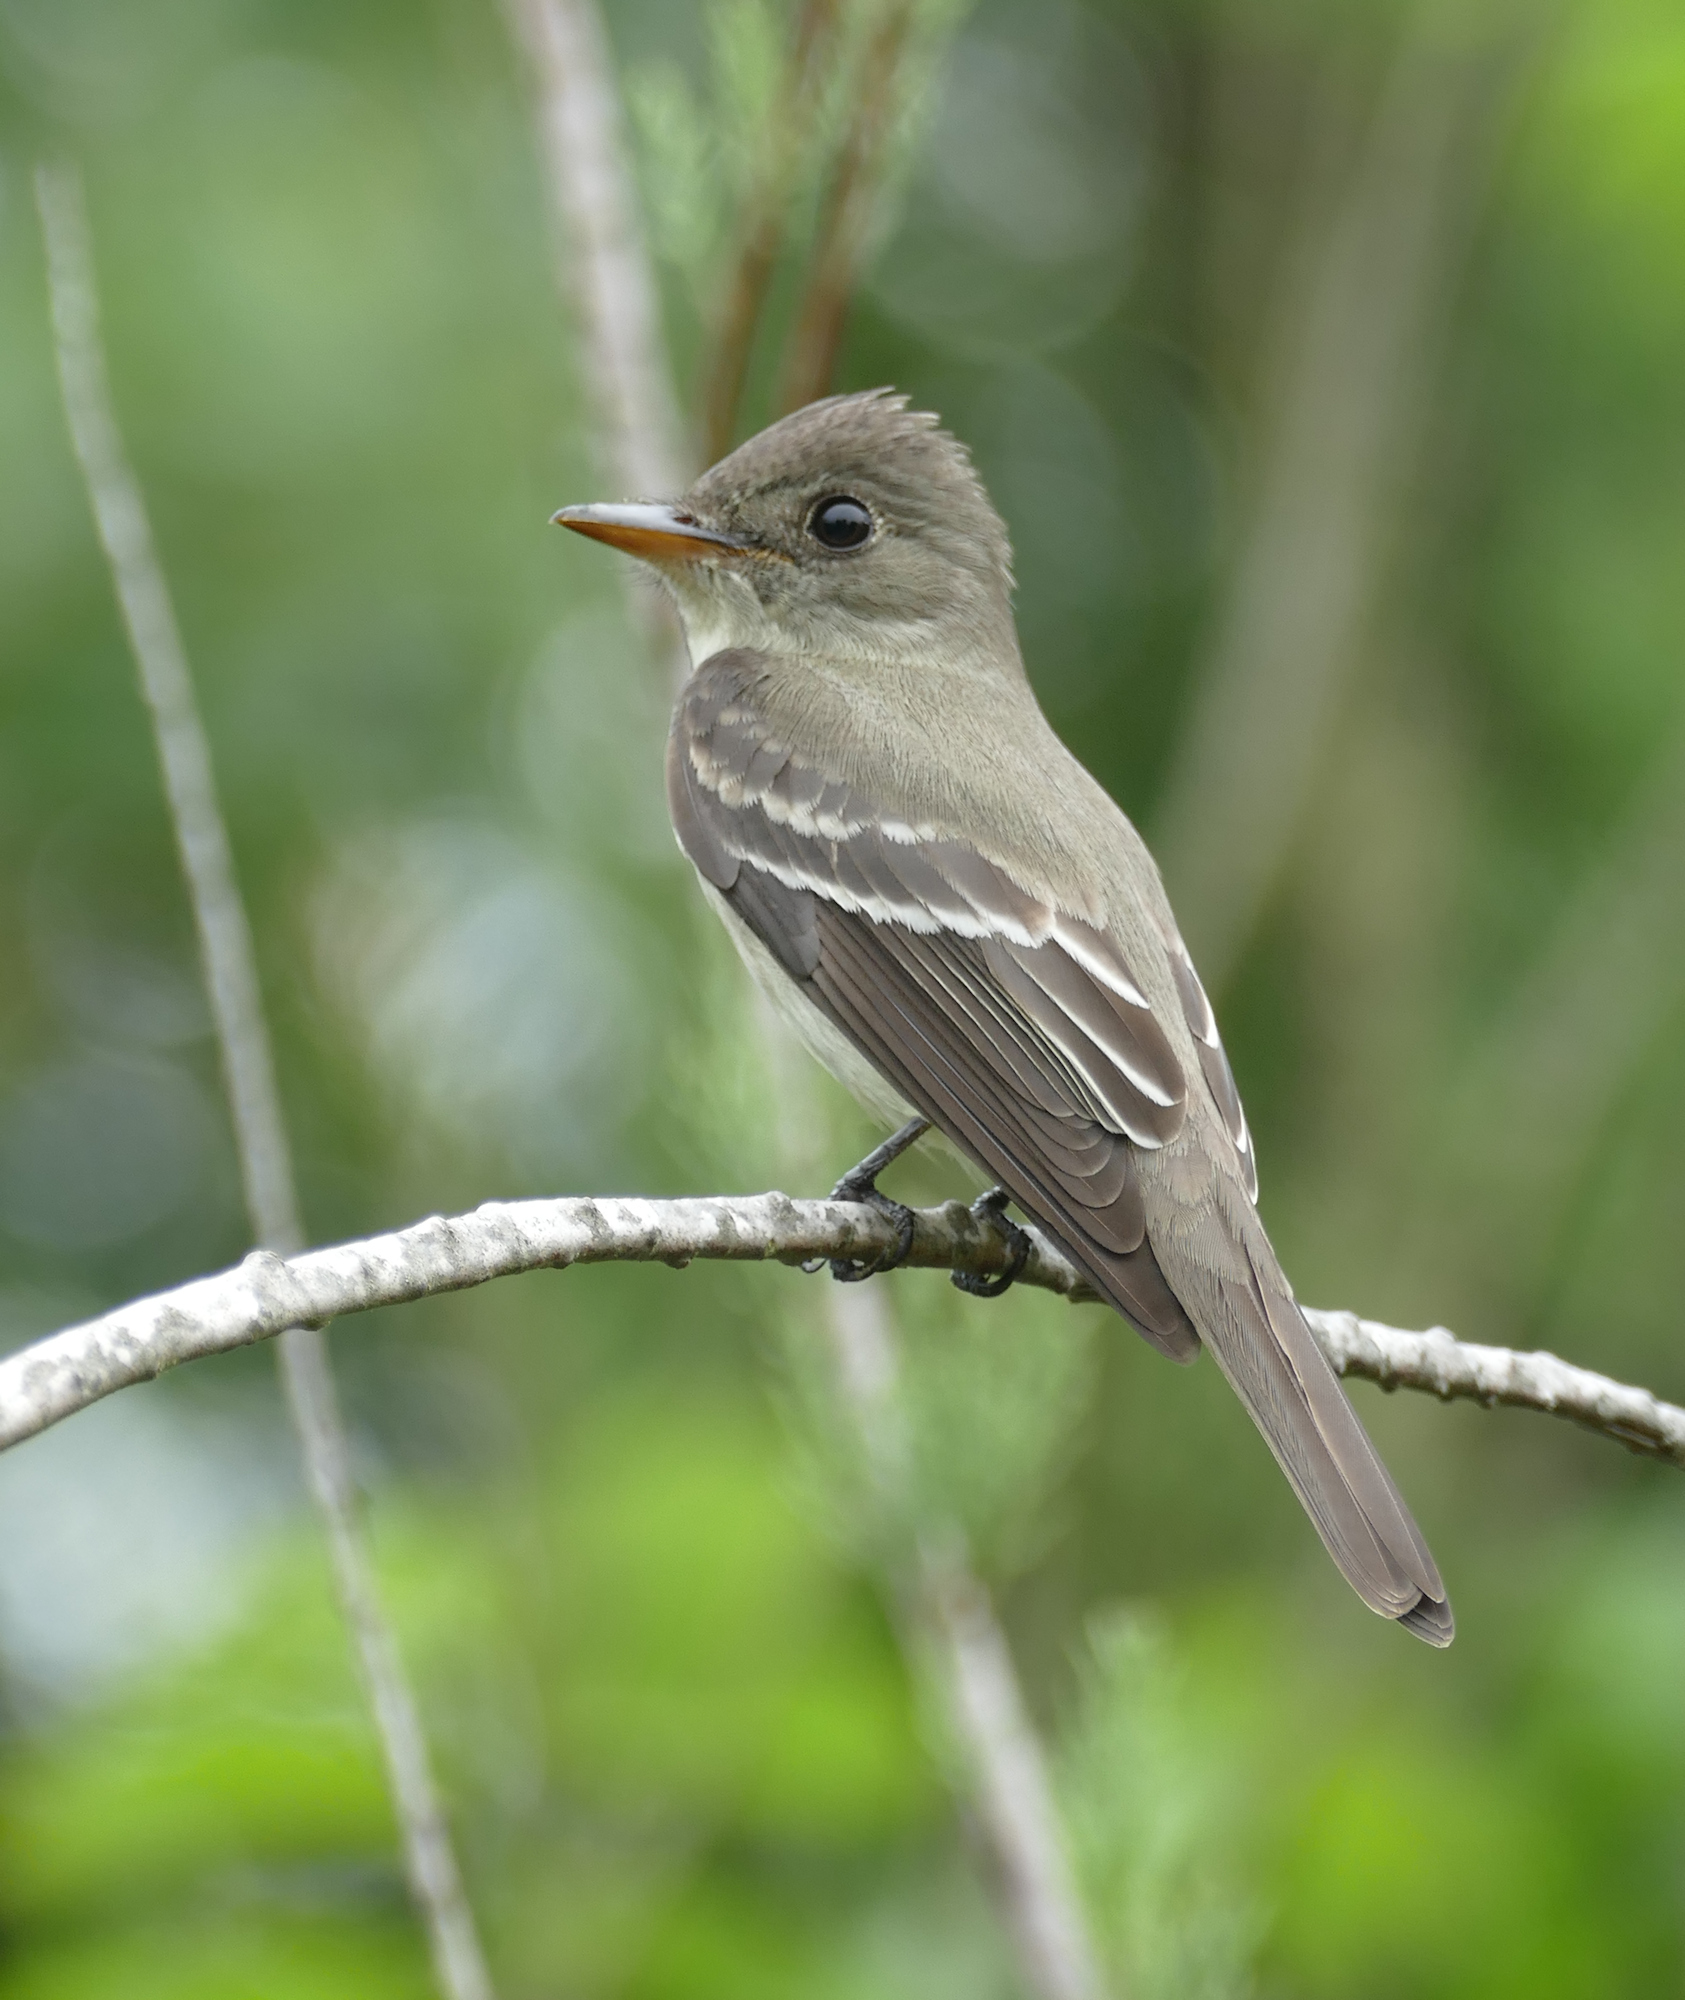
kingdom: Animalia
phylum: Chordata
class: Aves
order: Passeriformes
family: Tyrannidae
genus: Contopus
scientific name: Contopus virens
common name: Eastern wood-pewee
